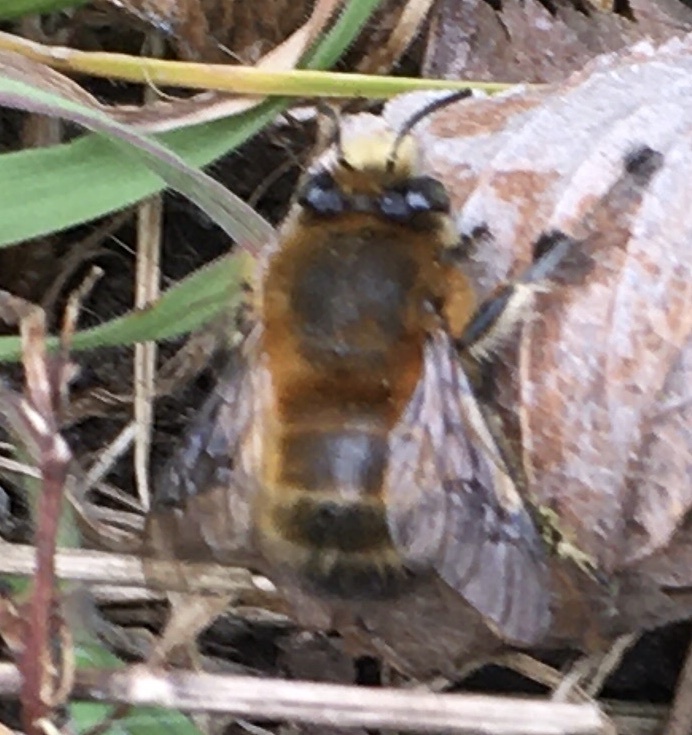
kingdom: Animalia
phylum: Arthropoda
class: Insecta
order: Hymenoptera
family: Apidae
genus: Anthophora
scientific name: Anthophora plumipes
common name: Hairy-footed flower bee
